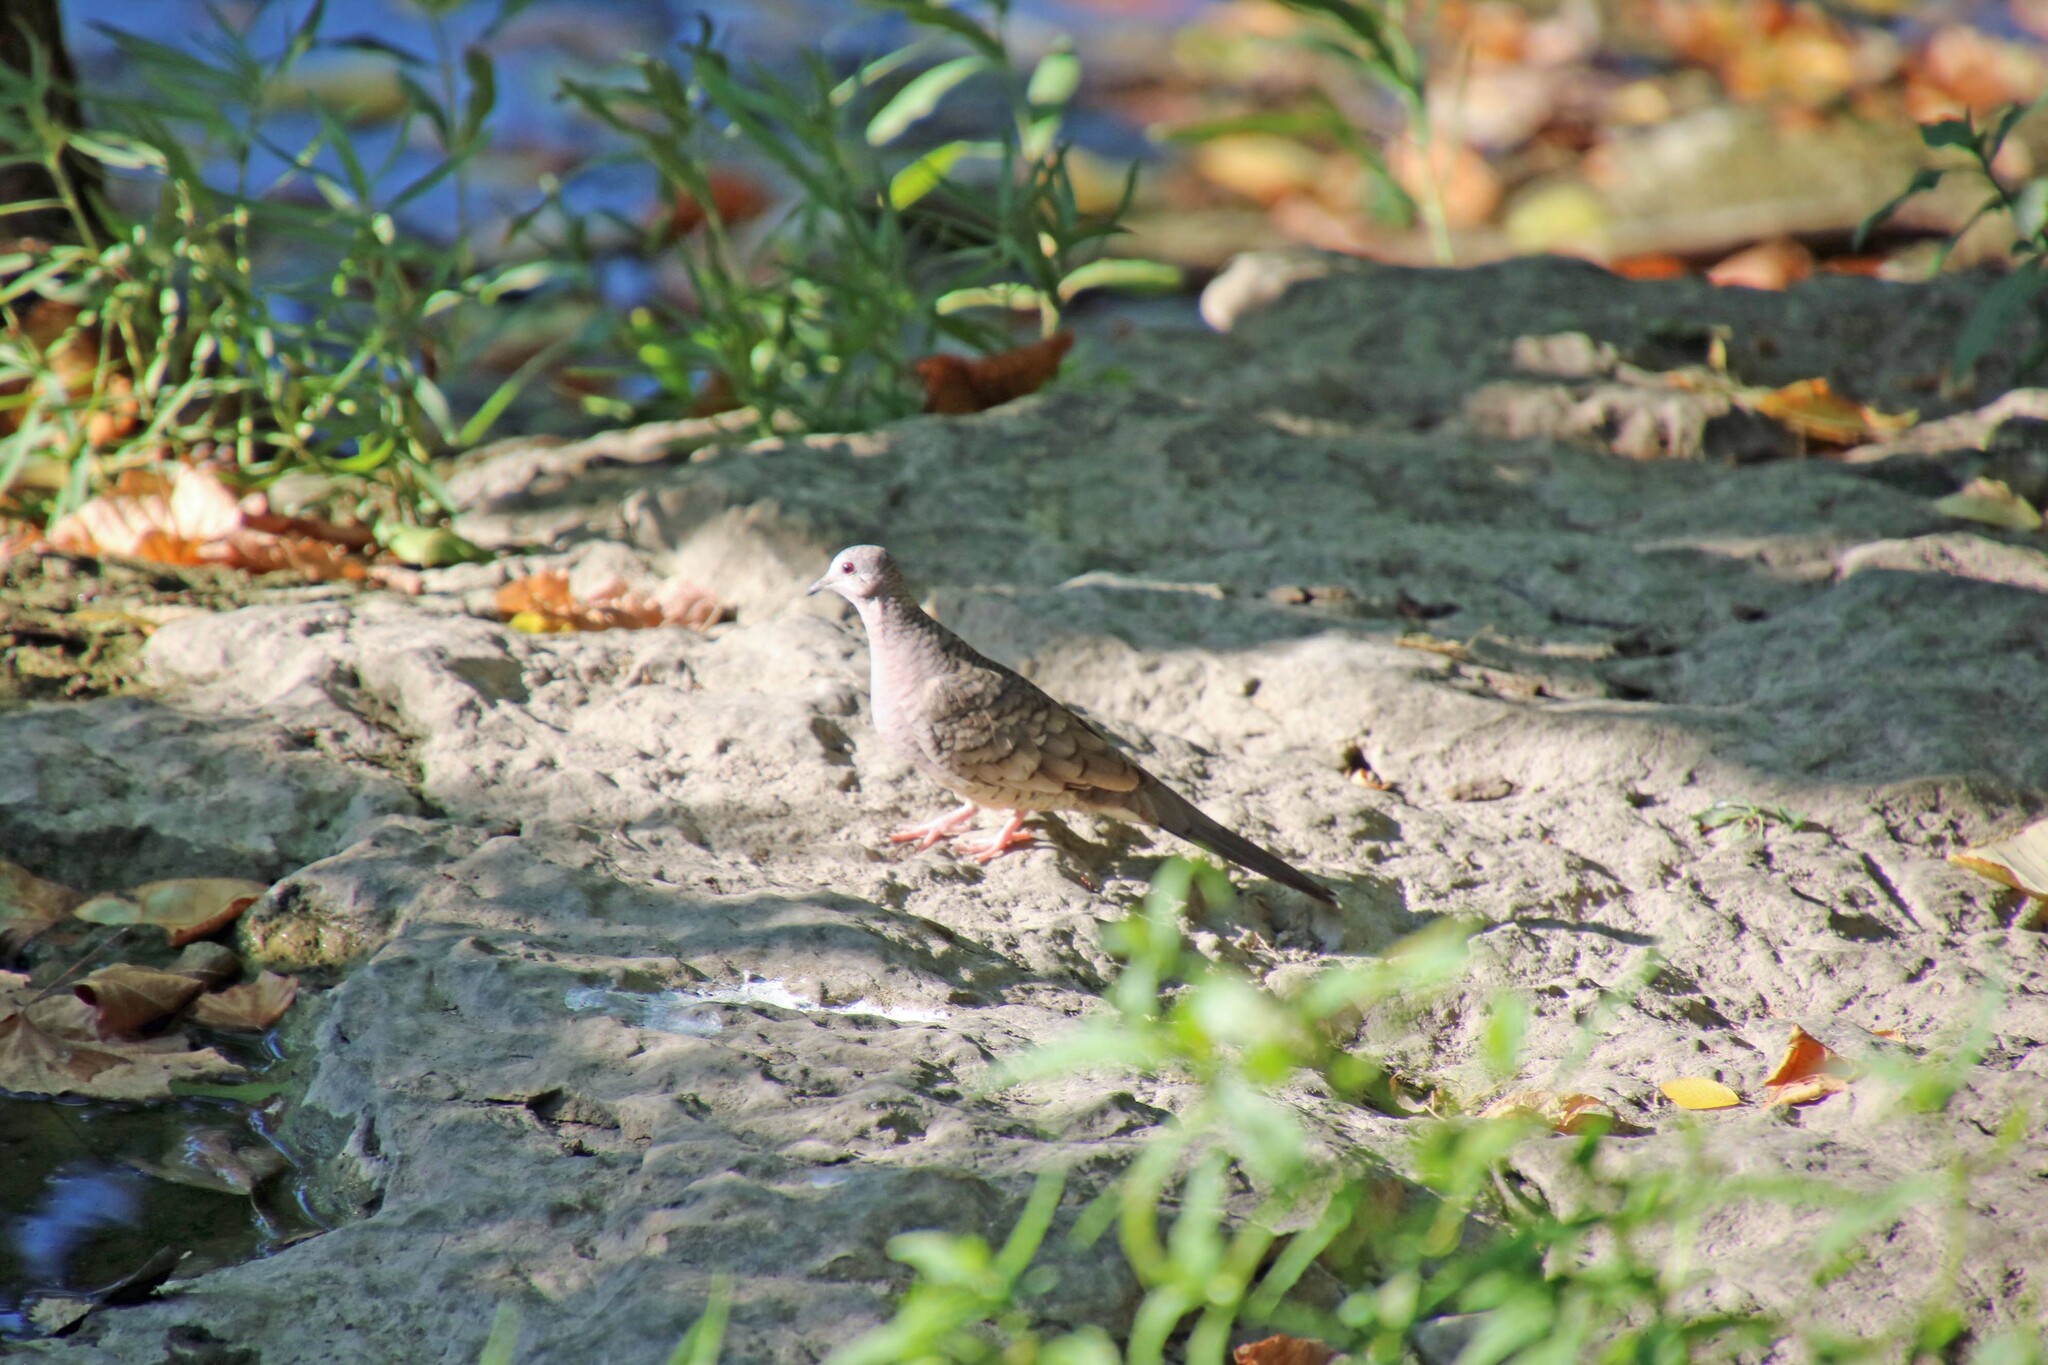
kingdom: Animalia
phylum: Chordata
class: Aves
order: Columbiformes
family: Columbidae
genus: Columbina
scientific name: Columbina inca
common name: Inca dove
